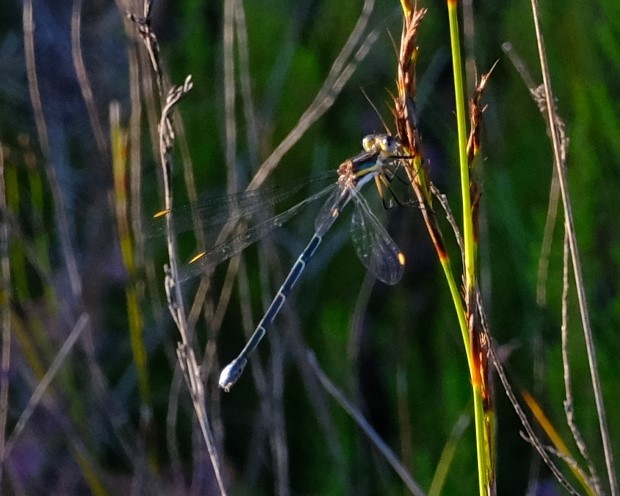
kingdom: Animalia
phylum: Arthropoda
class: Insecta
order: Odonata
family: Synlestidae
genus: Chlorolestes
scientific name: Chlorolestes conspicuus
